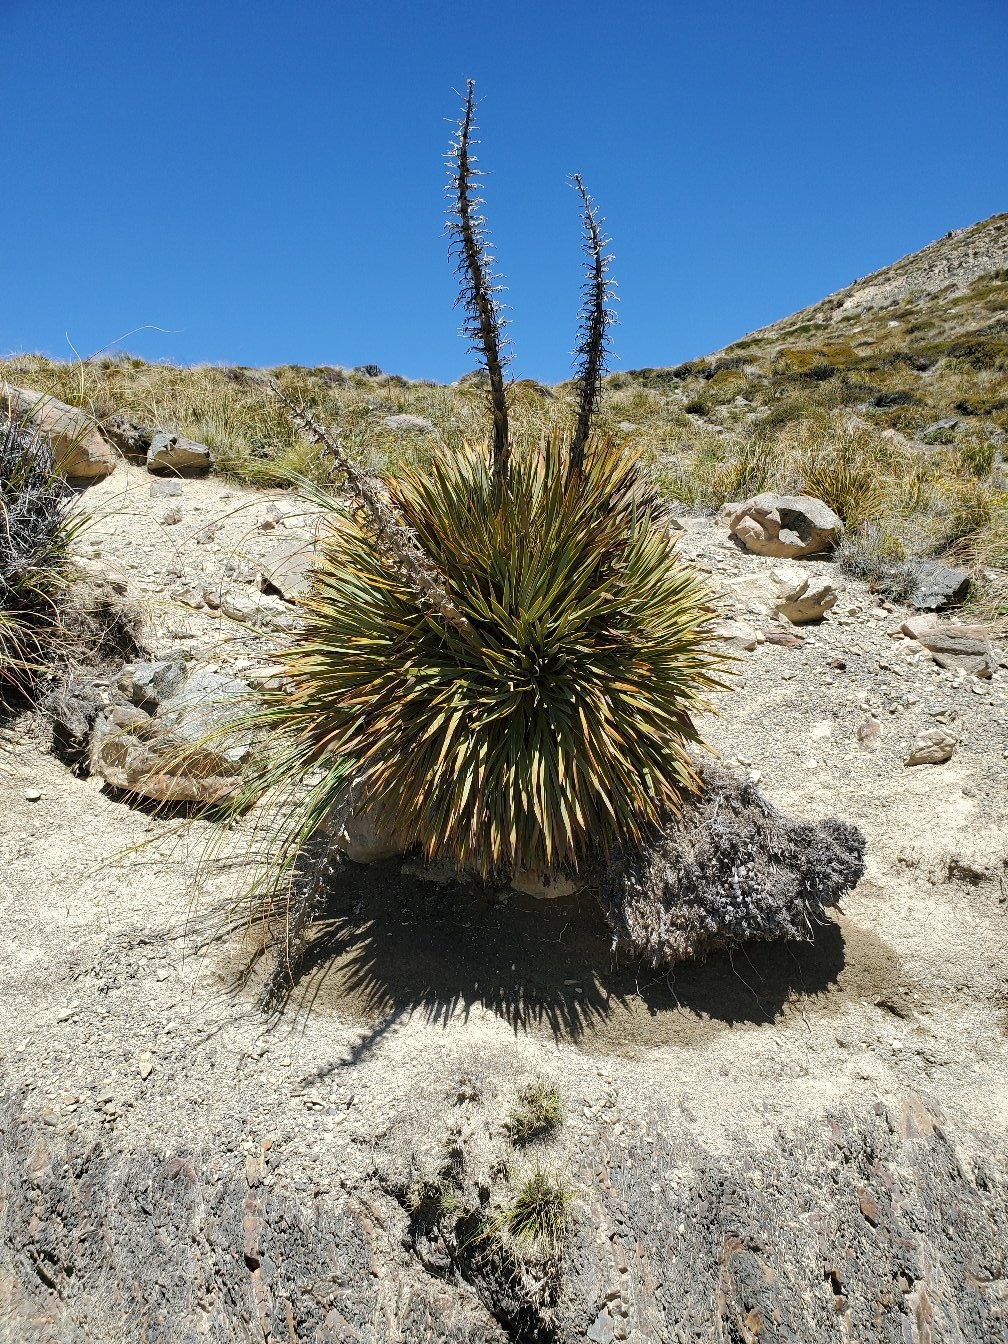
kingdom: Plantae
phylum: Tracheophyta
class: Magnoliopsida
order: Apiales
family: Apiaceae
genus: Aciphylla
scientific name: Aciphylla aurea
